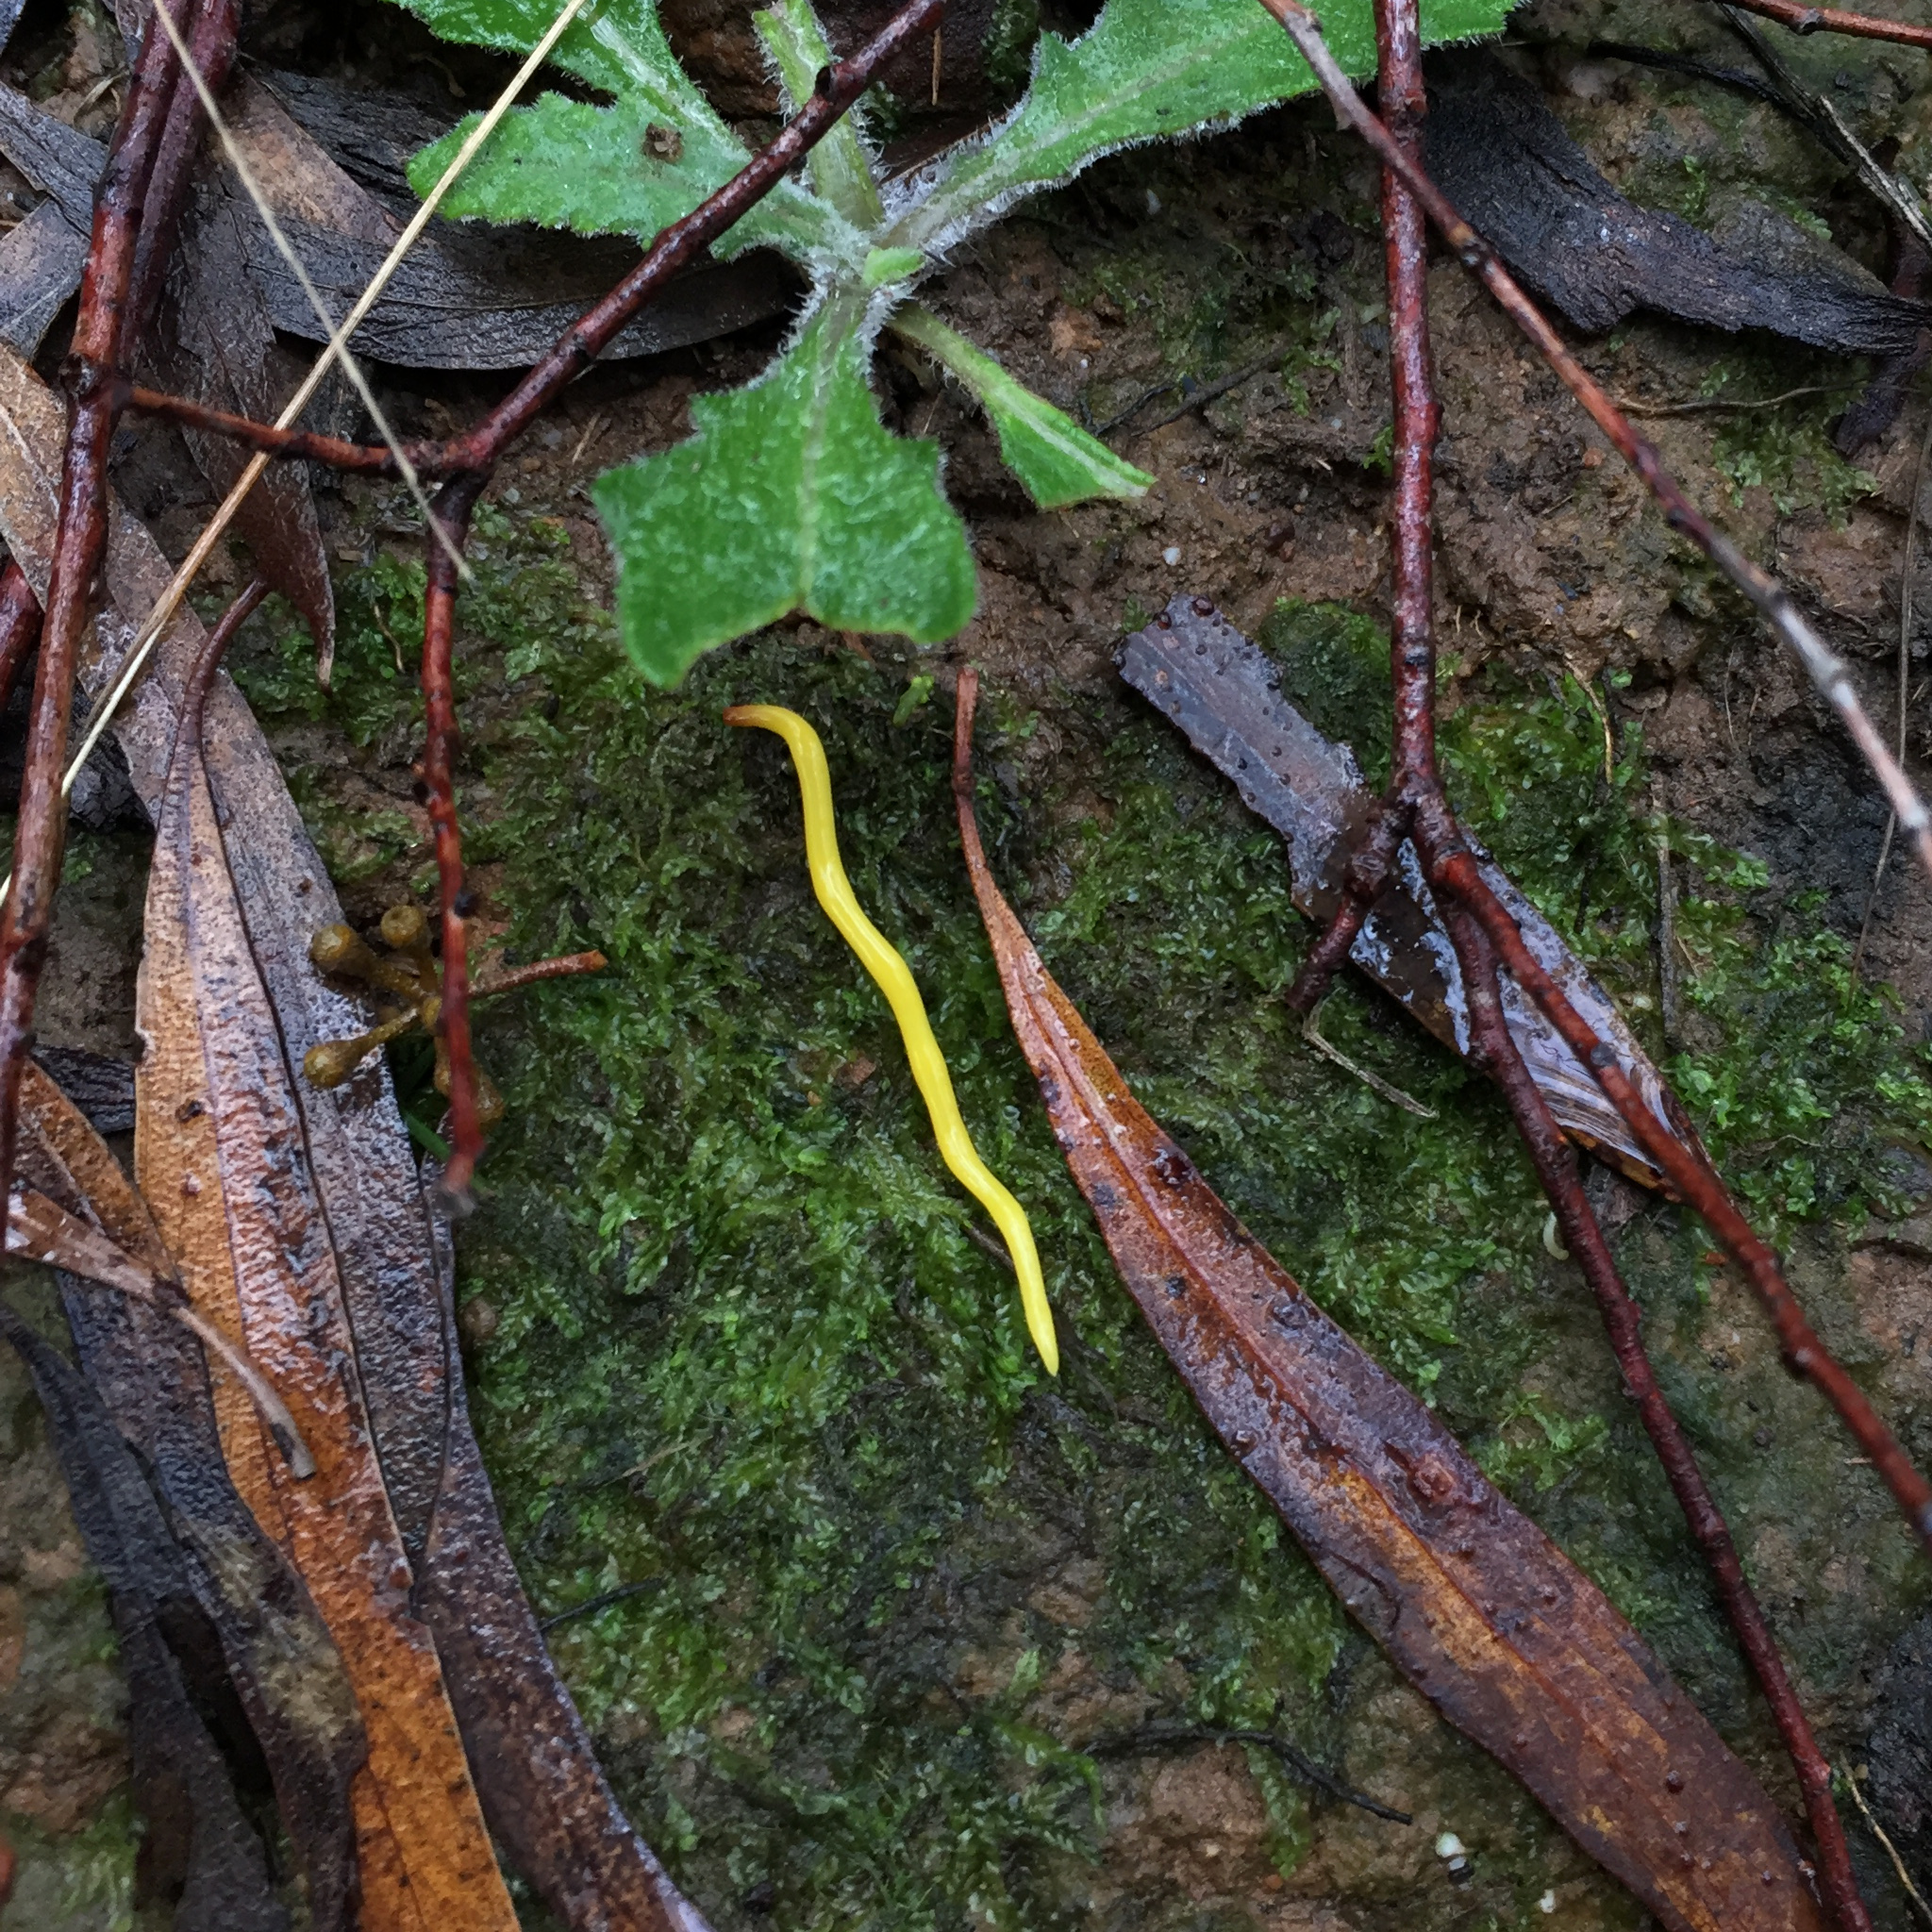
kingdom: Animalia
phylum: Platyhelminthes
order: Tricladida
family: Geoplanidae
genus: Fletchamia
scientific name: Fletchamia sugdeni
